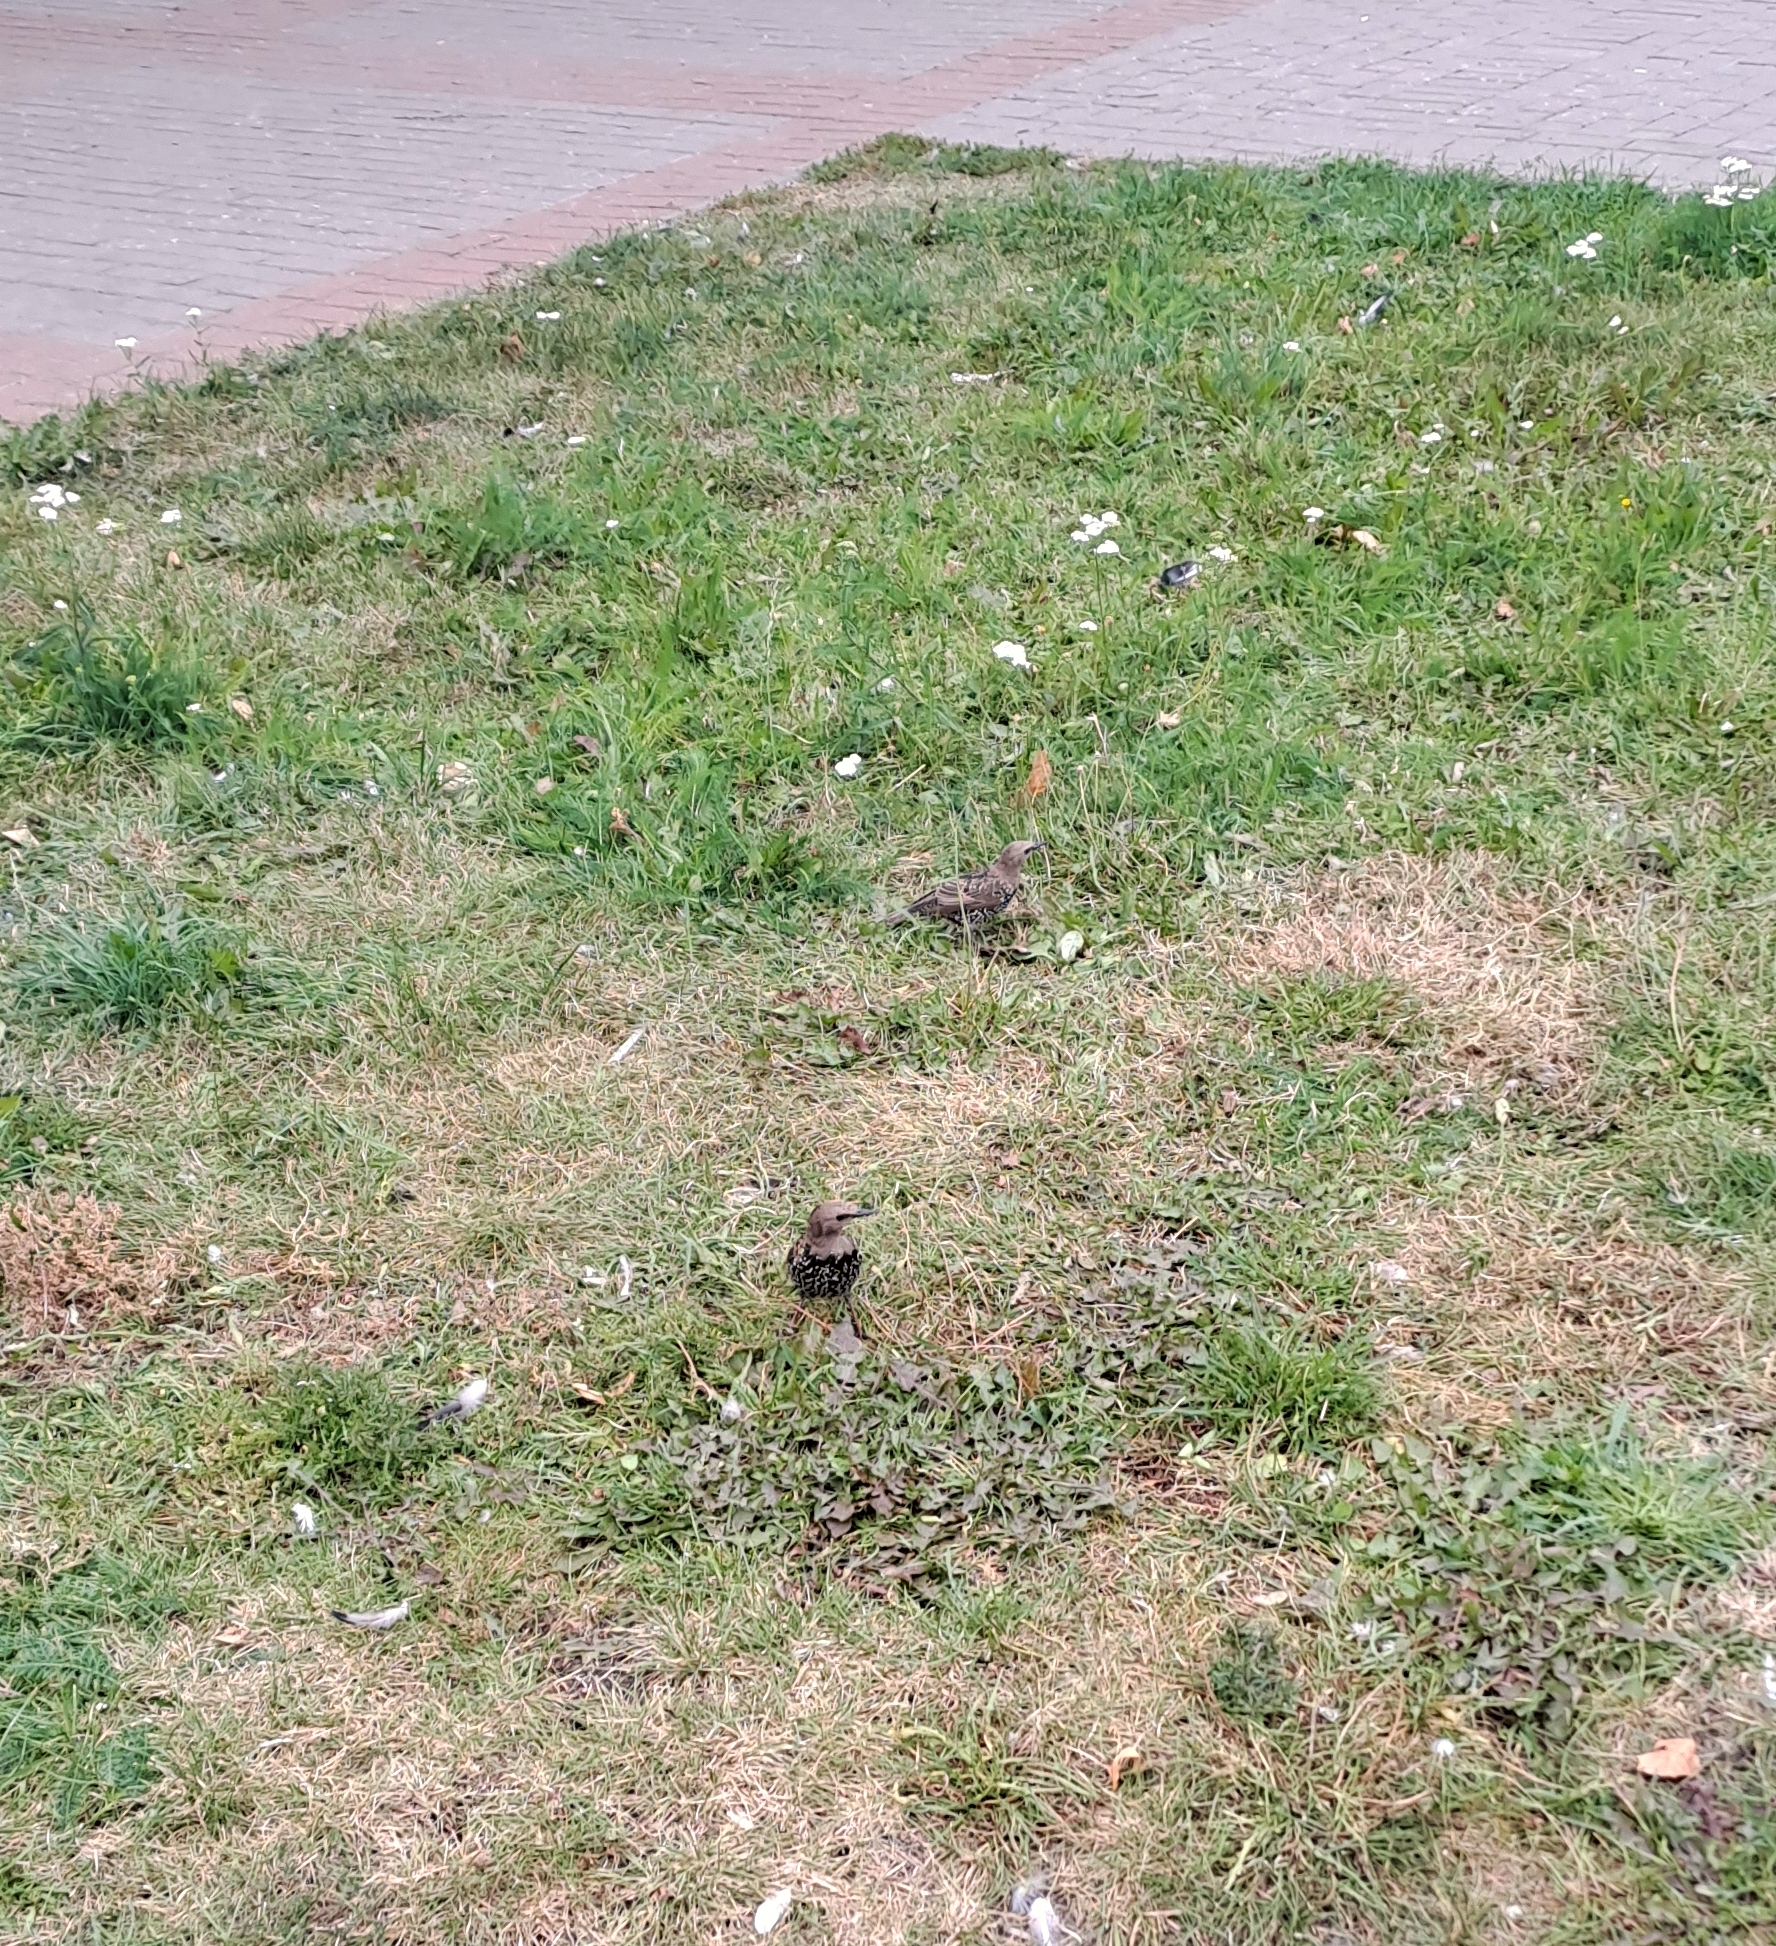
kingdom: Animalia
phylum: Chordata
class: Aves
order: Passeriformes
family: Sturnidae
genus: Sturnus
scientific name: Sturnus vulgaris
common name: Common starling
